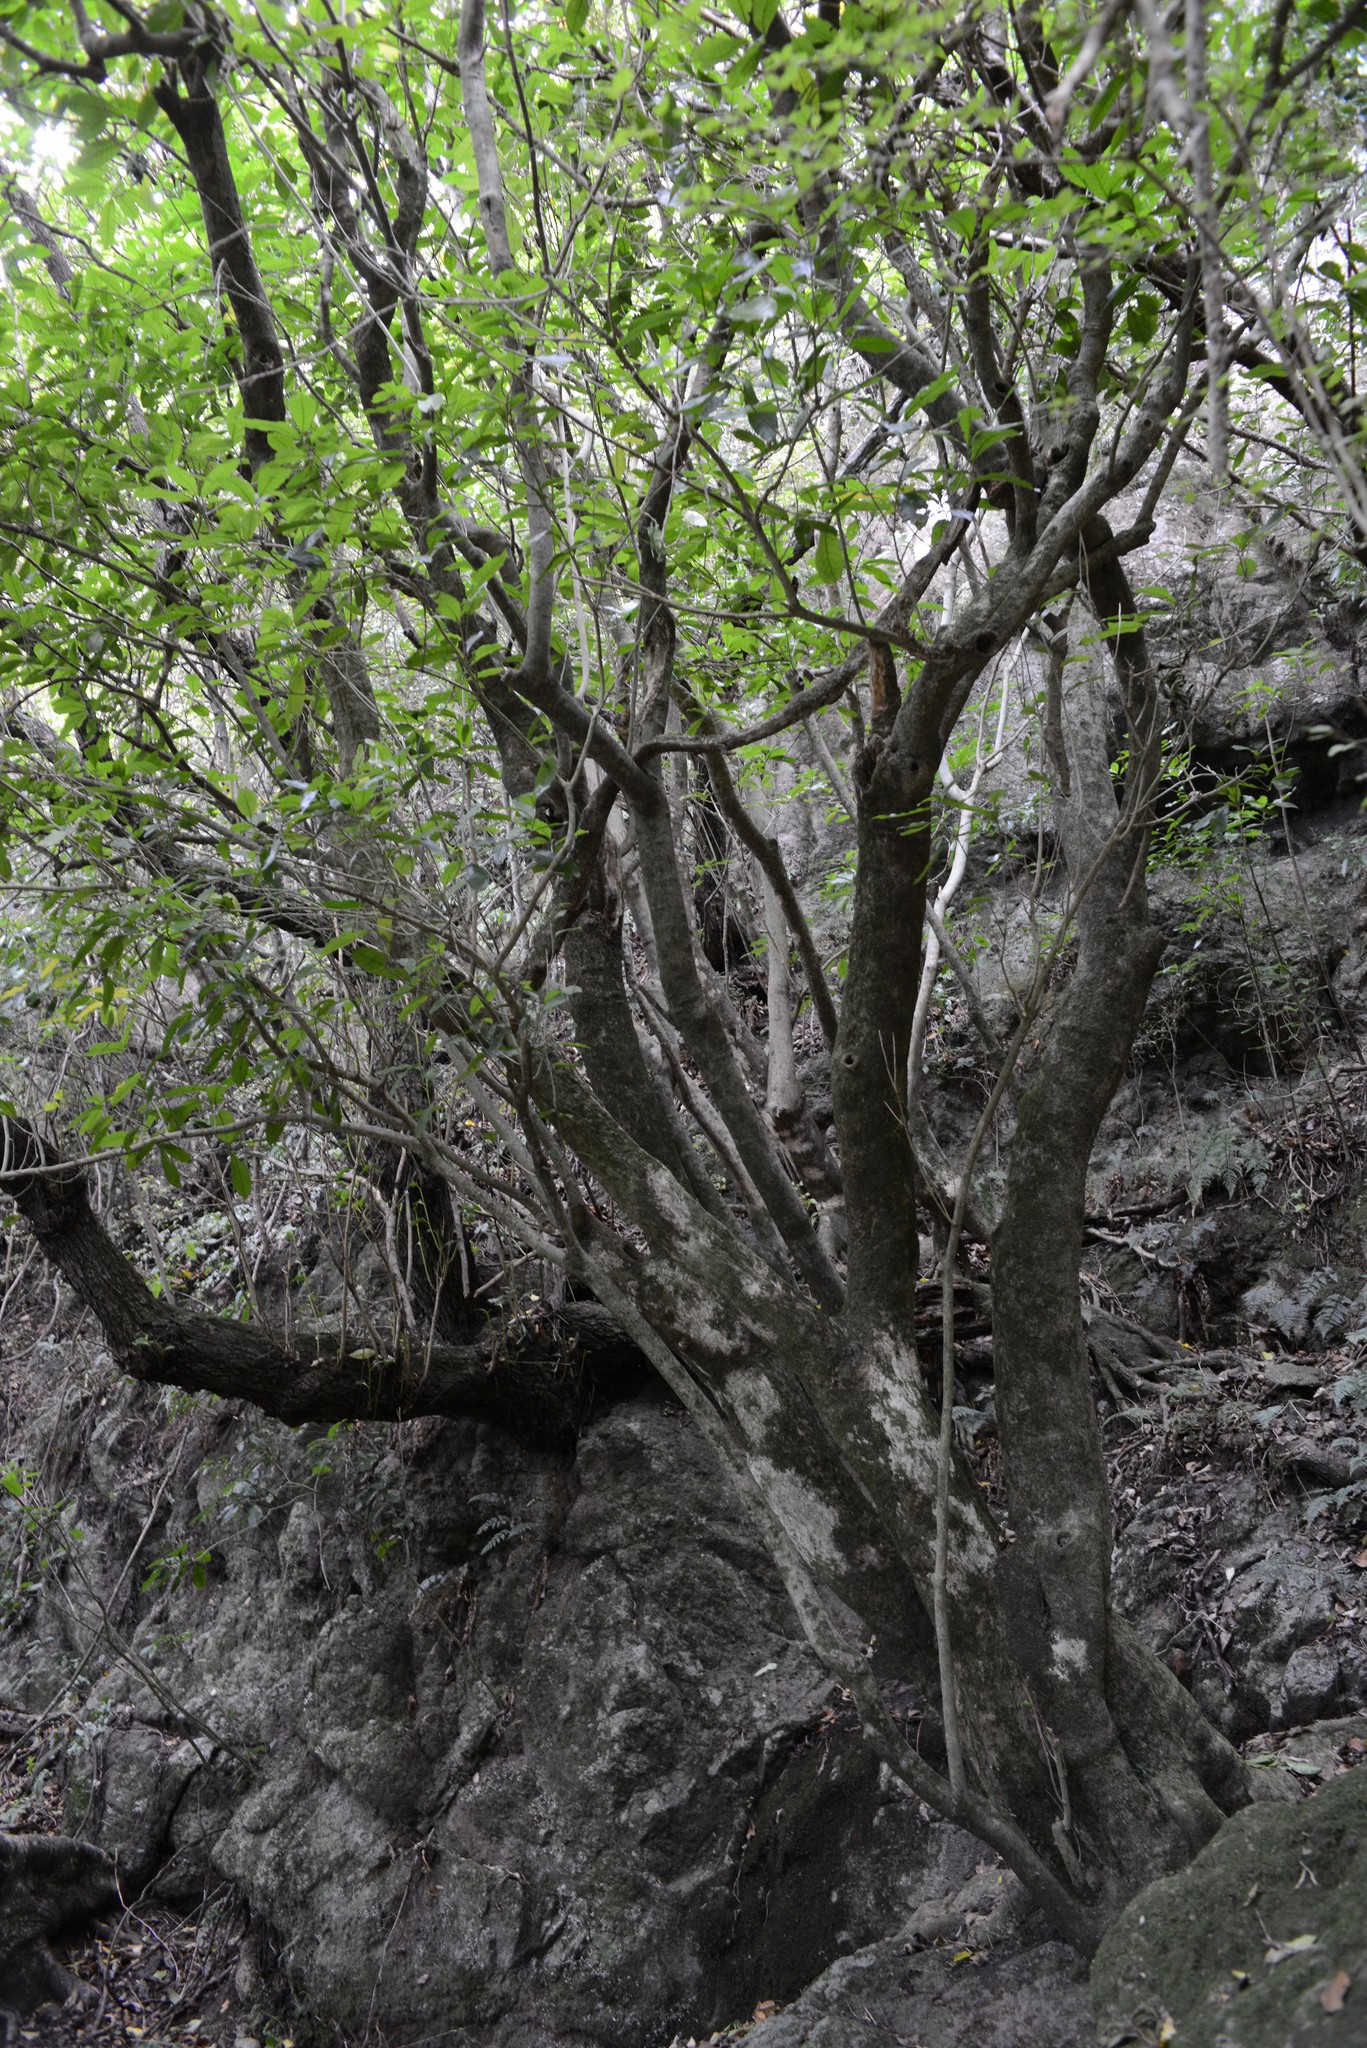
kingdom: Plantae
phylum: Tracheophyta
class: Magnoliopsida
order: Malpighiales
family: Violaceae
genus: Melicytus
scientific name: Melicytus ramiflorus
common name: Mahoe
